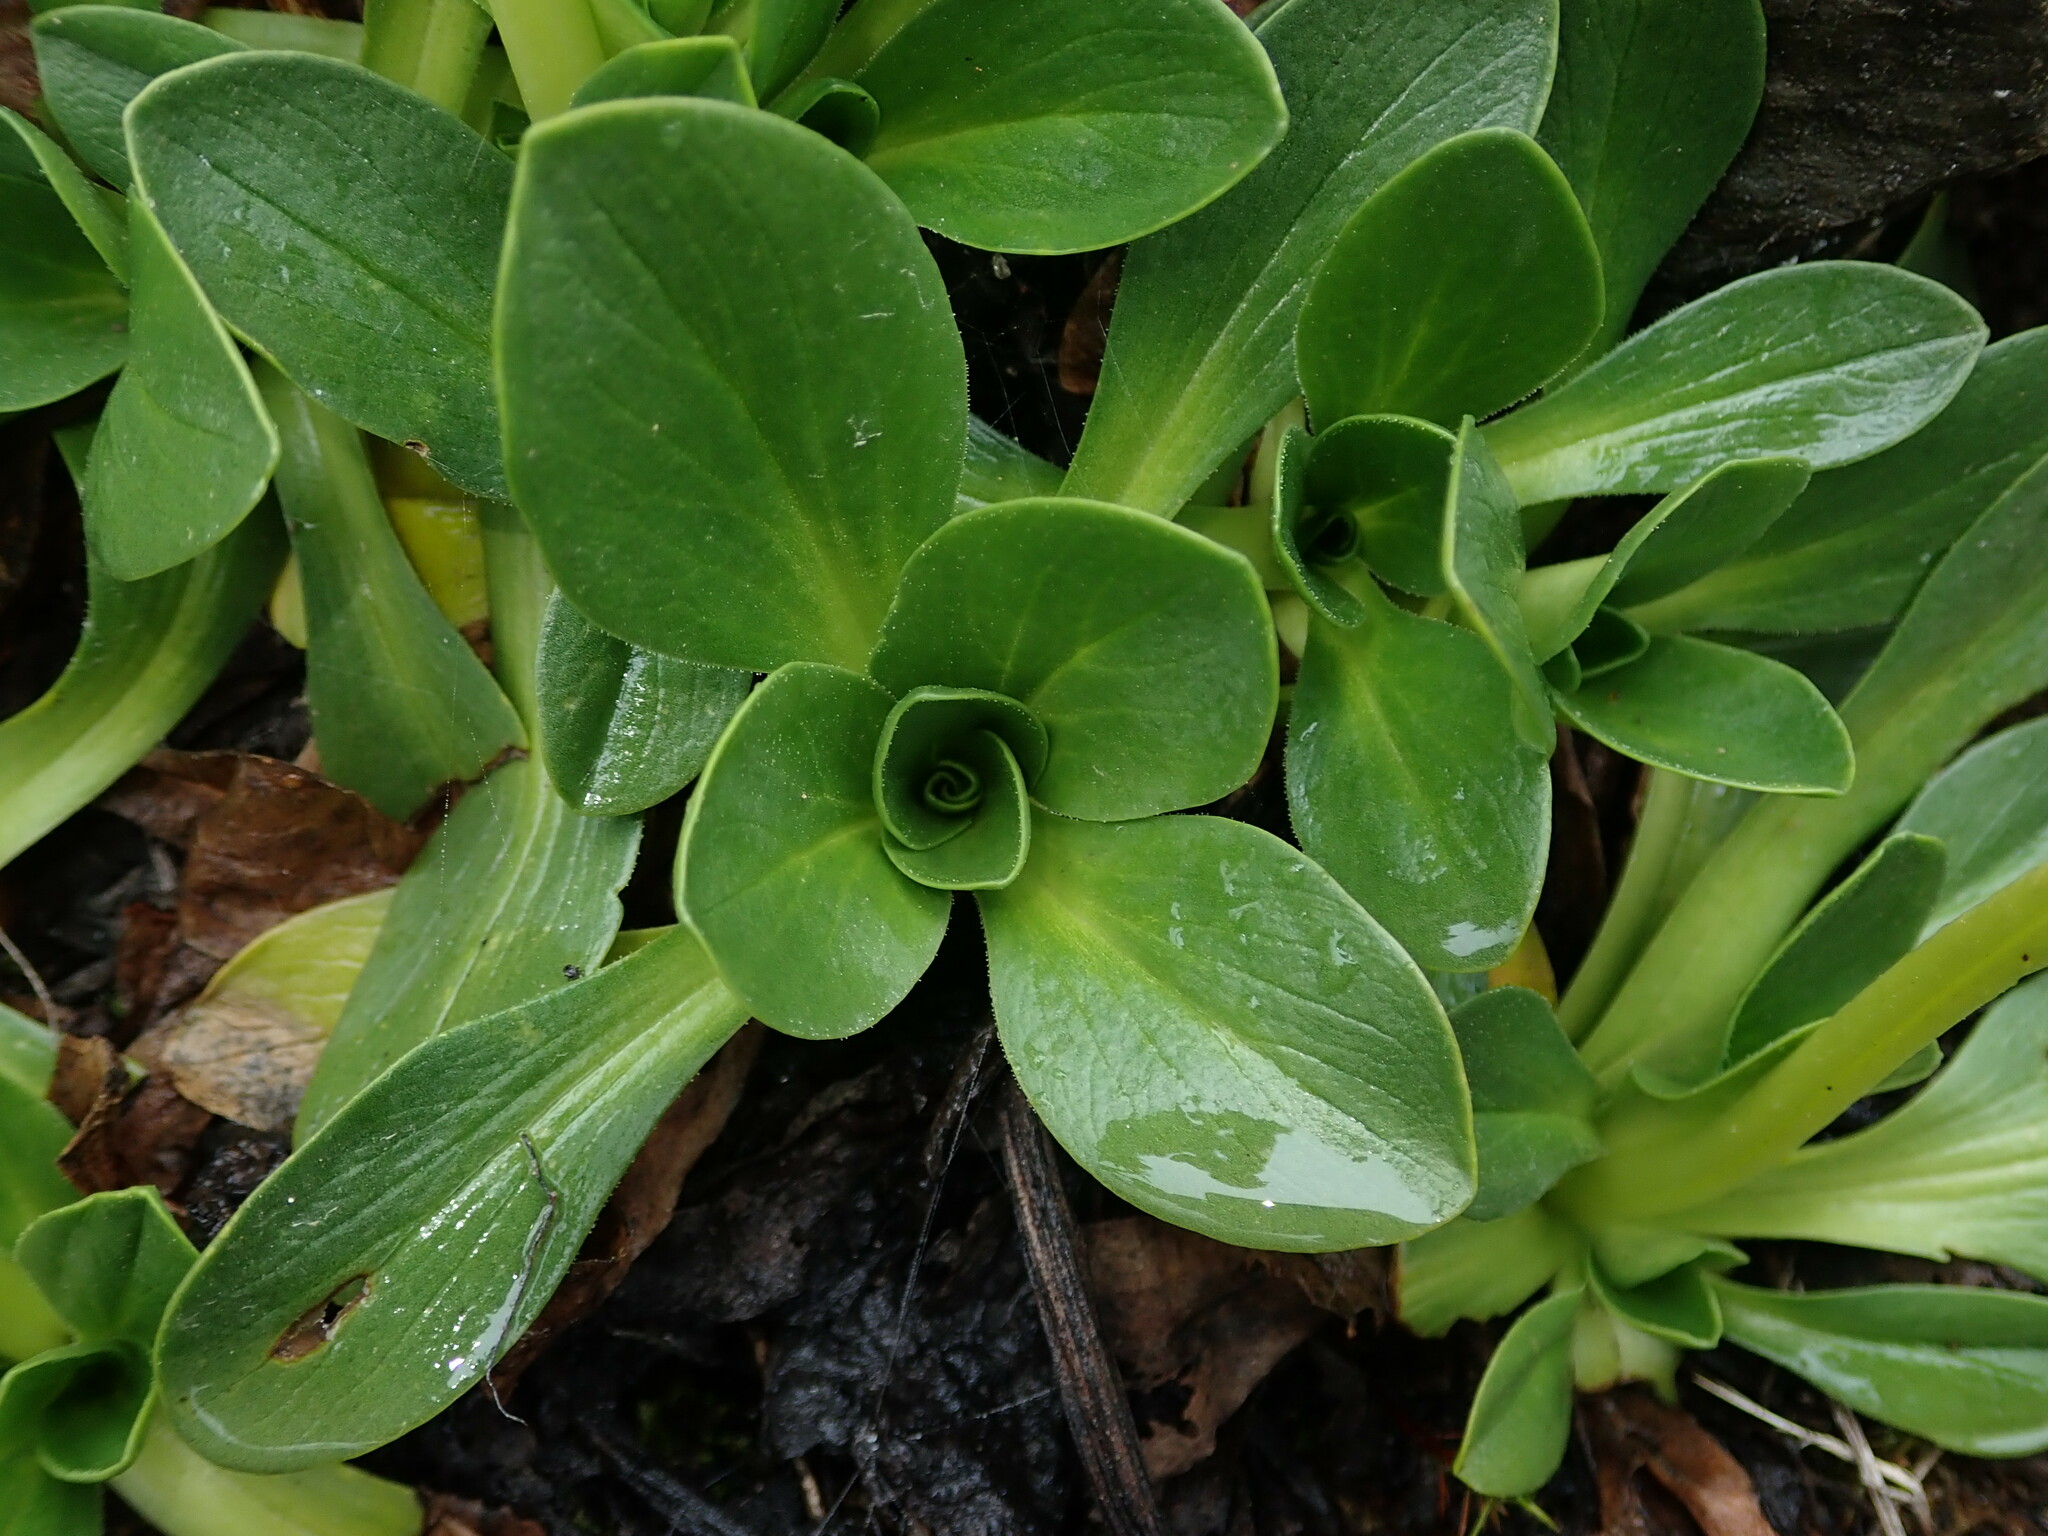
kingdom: Plantae
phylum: Tracheophyta
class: Magnoliopsida
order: Dipsacales
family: Caprifoliaceae
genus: Valeriana
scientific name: Valeriana nivalis
